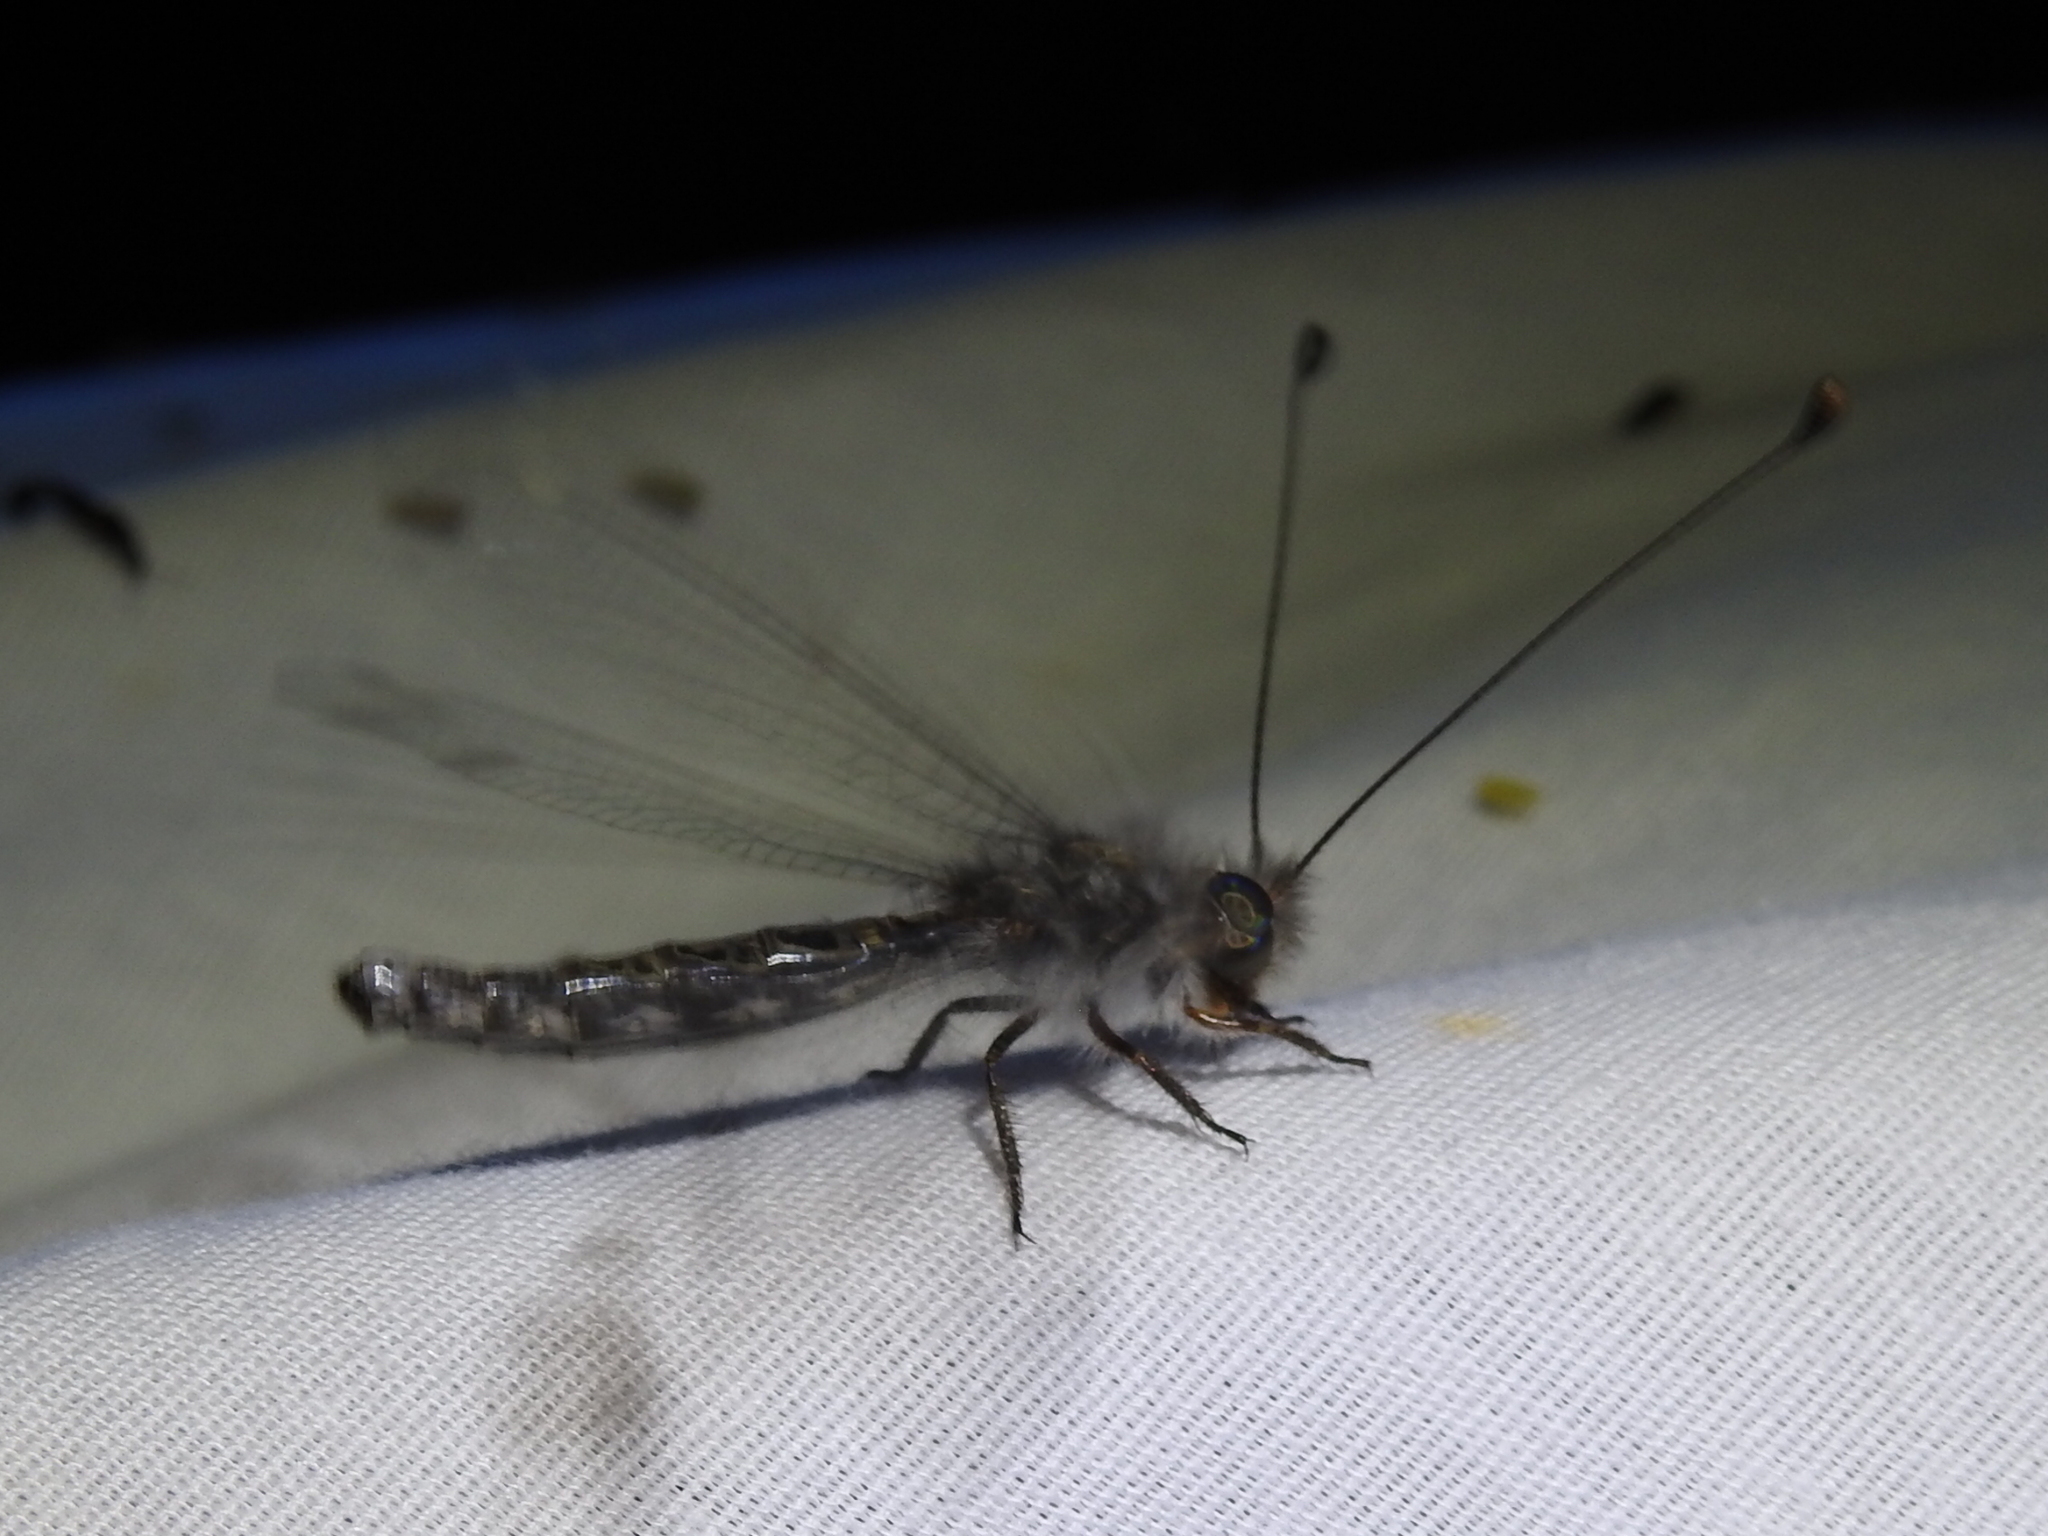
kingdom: Animalia
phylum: Arthropoda
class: Insecta
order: Neuroptera
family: Ascalaphidae
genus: Ululodes
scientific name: Ululodes quadripunctatus
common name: Four-spotted owlfly
